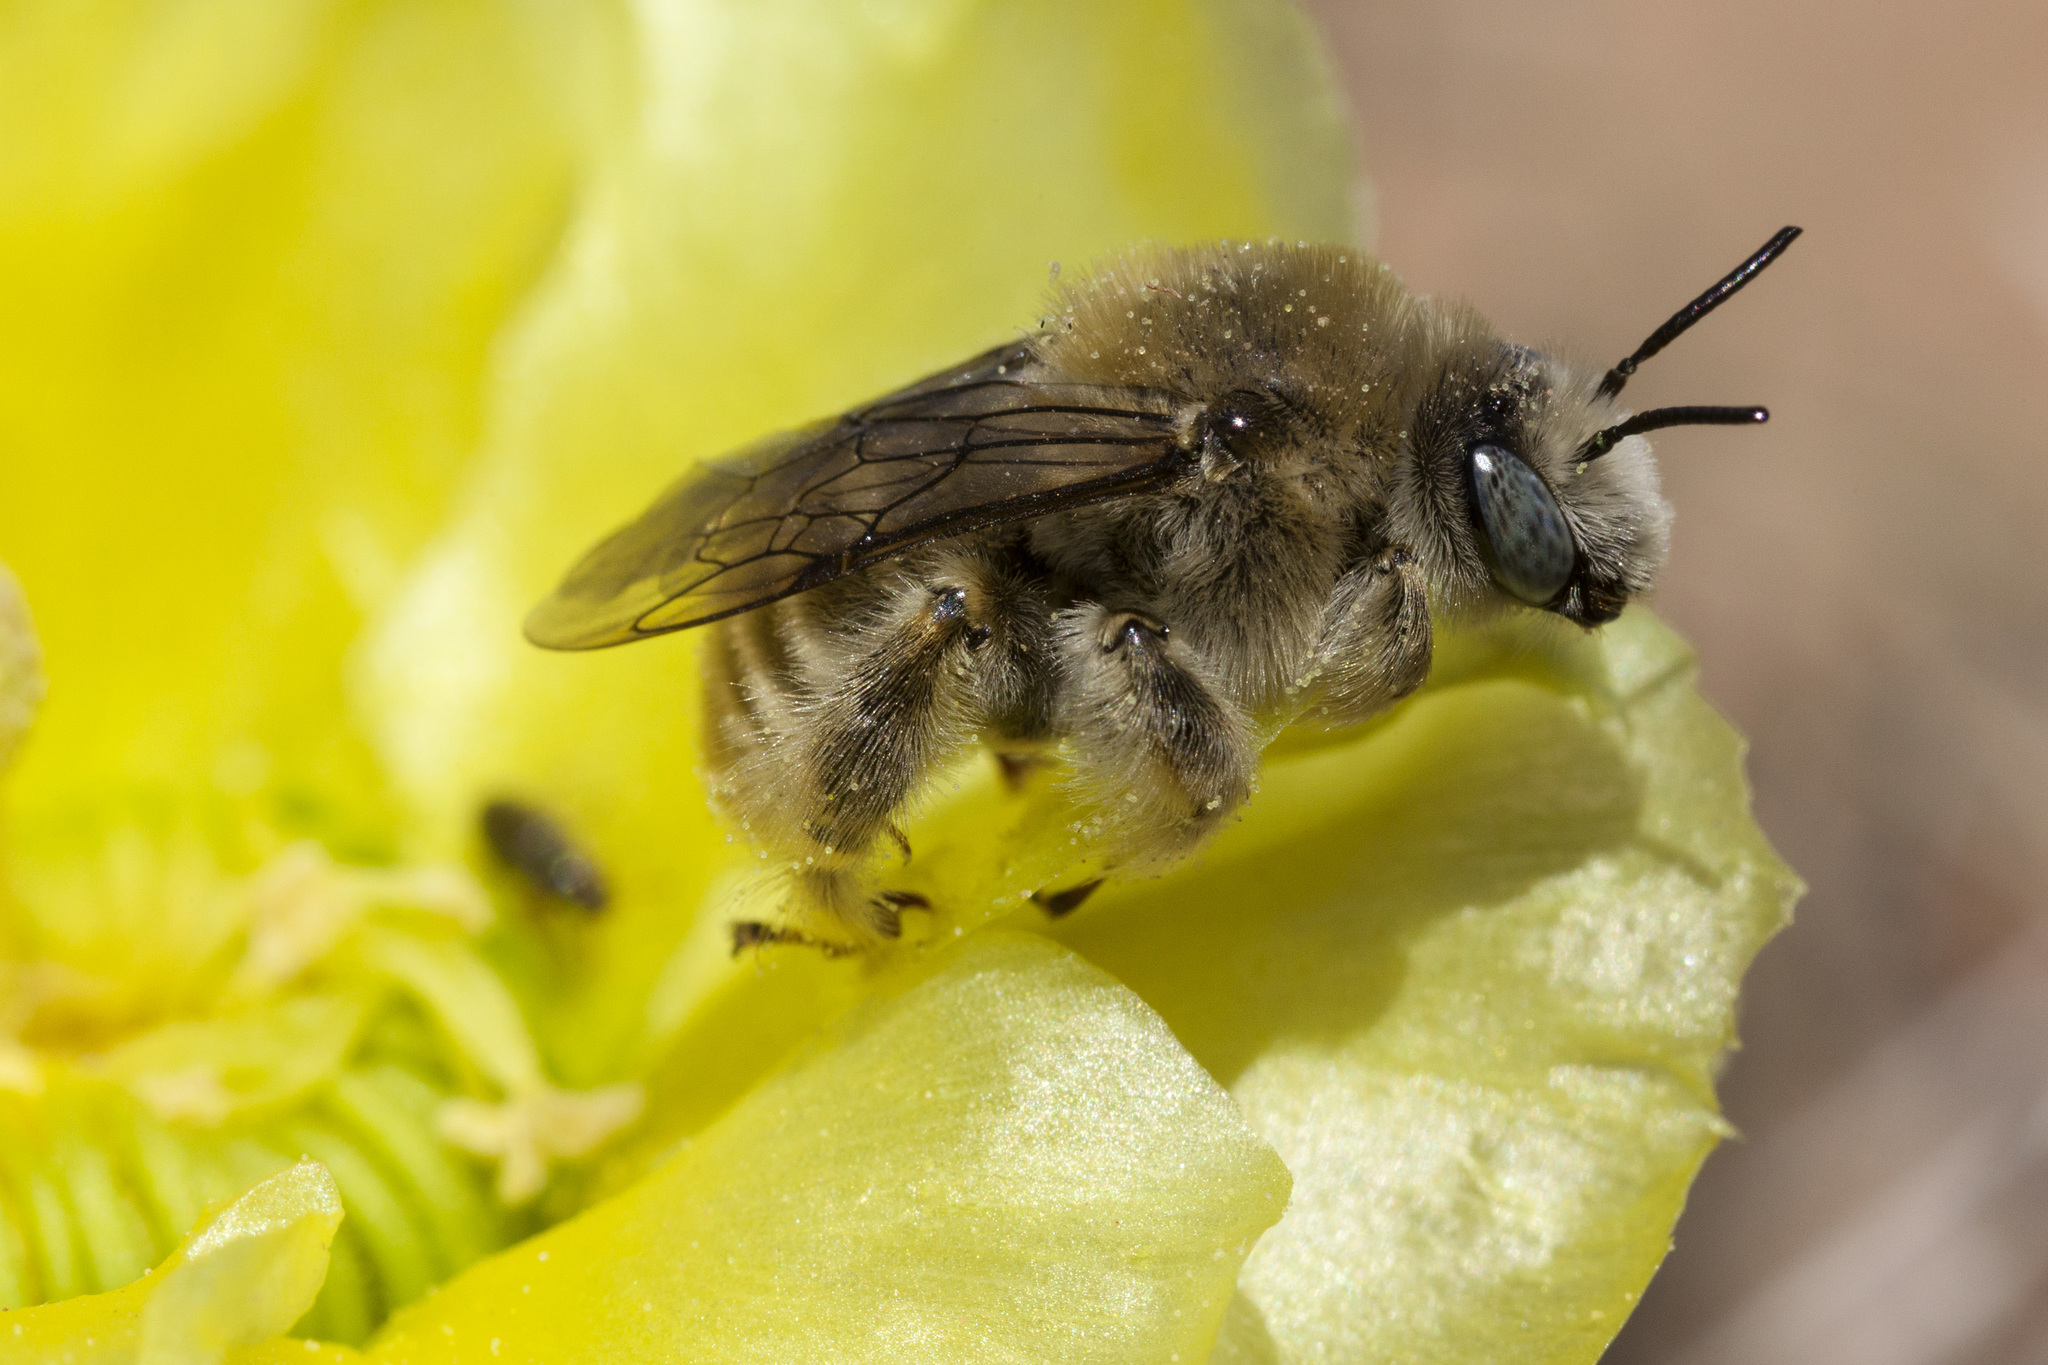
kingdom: Animalia
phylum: Arthropoda
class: Insecta
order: Hymenoptera
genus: Coquillettapis
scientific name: Coquillettapis
